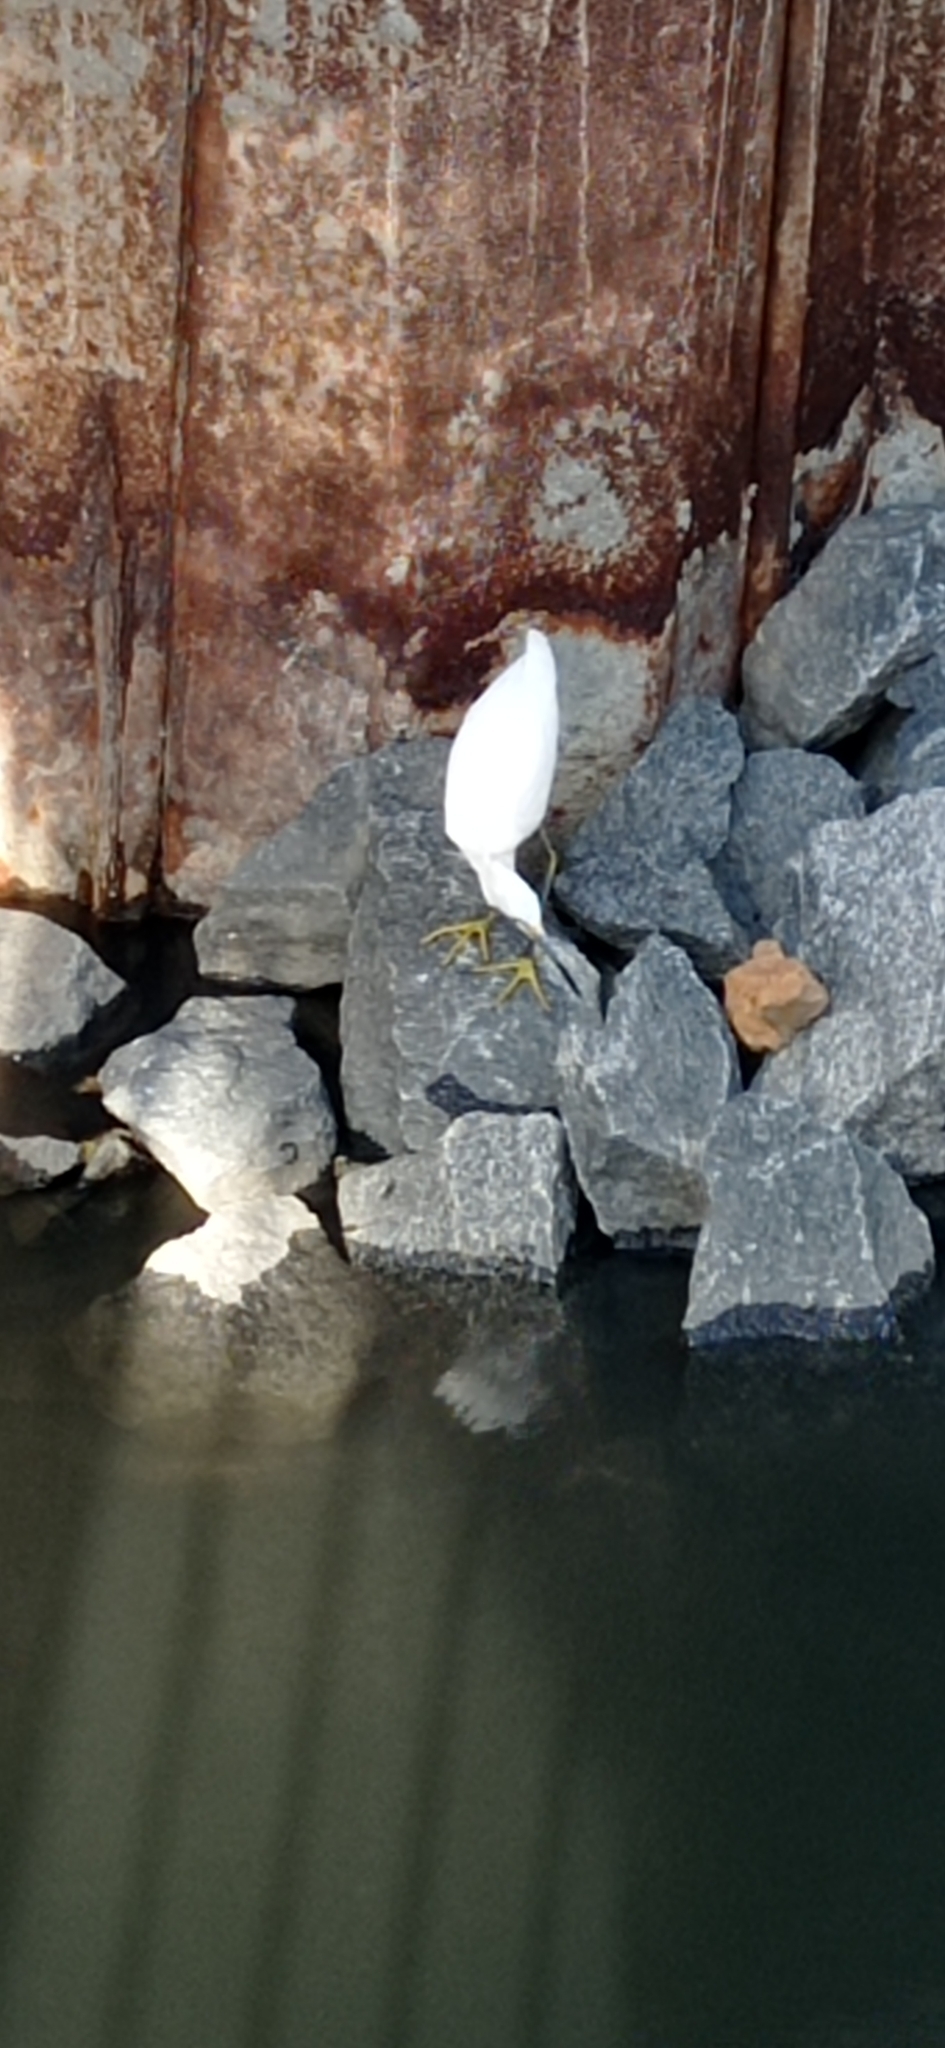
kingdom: Animalia
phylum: Chordata
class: Aves
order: Pelecaniformes
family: Ardeidae
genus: Egretta
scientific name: Egretta thula
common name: Snowy egret
